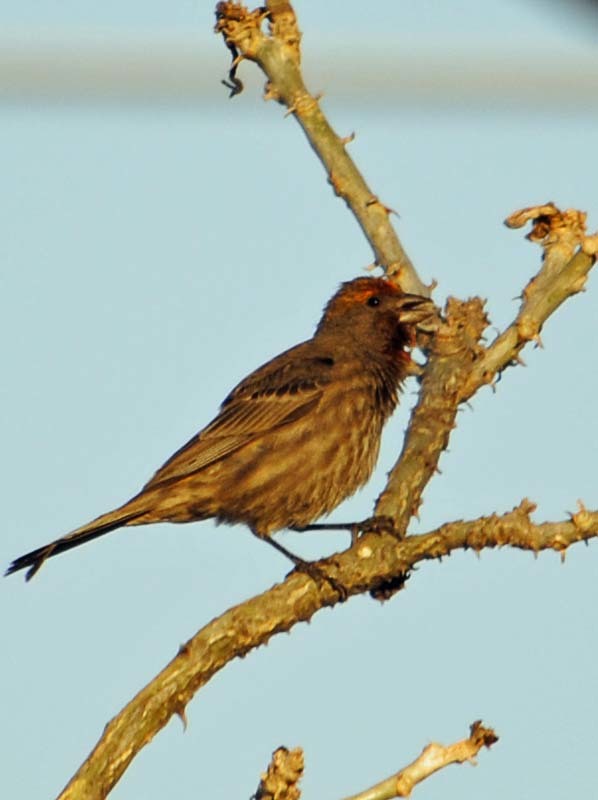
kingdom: Animalia
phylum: Chordata
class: Aves
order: Passeriformes
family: Fringillidae
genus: Haemorhous
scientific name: Haemorhous mexicanus
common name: House finch
